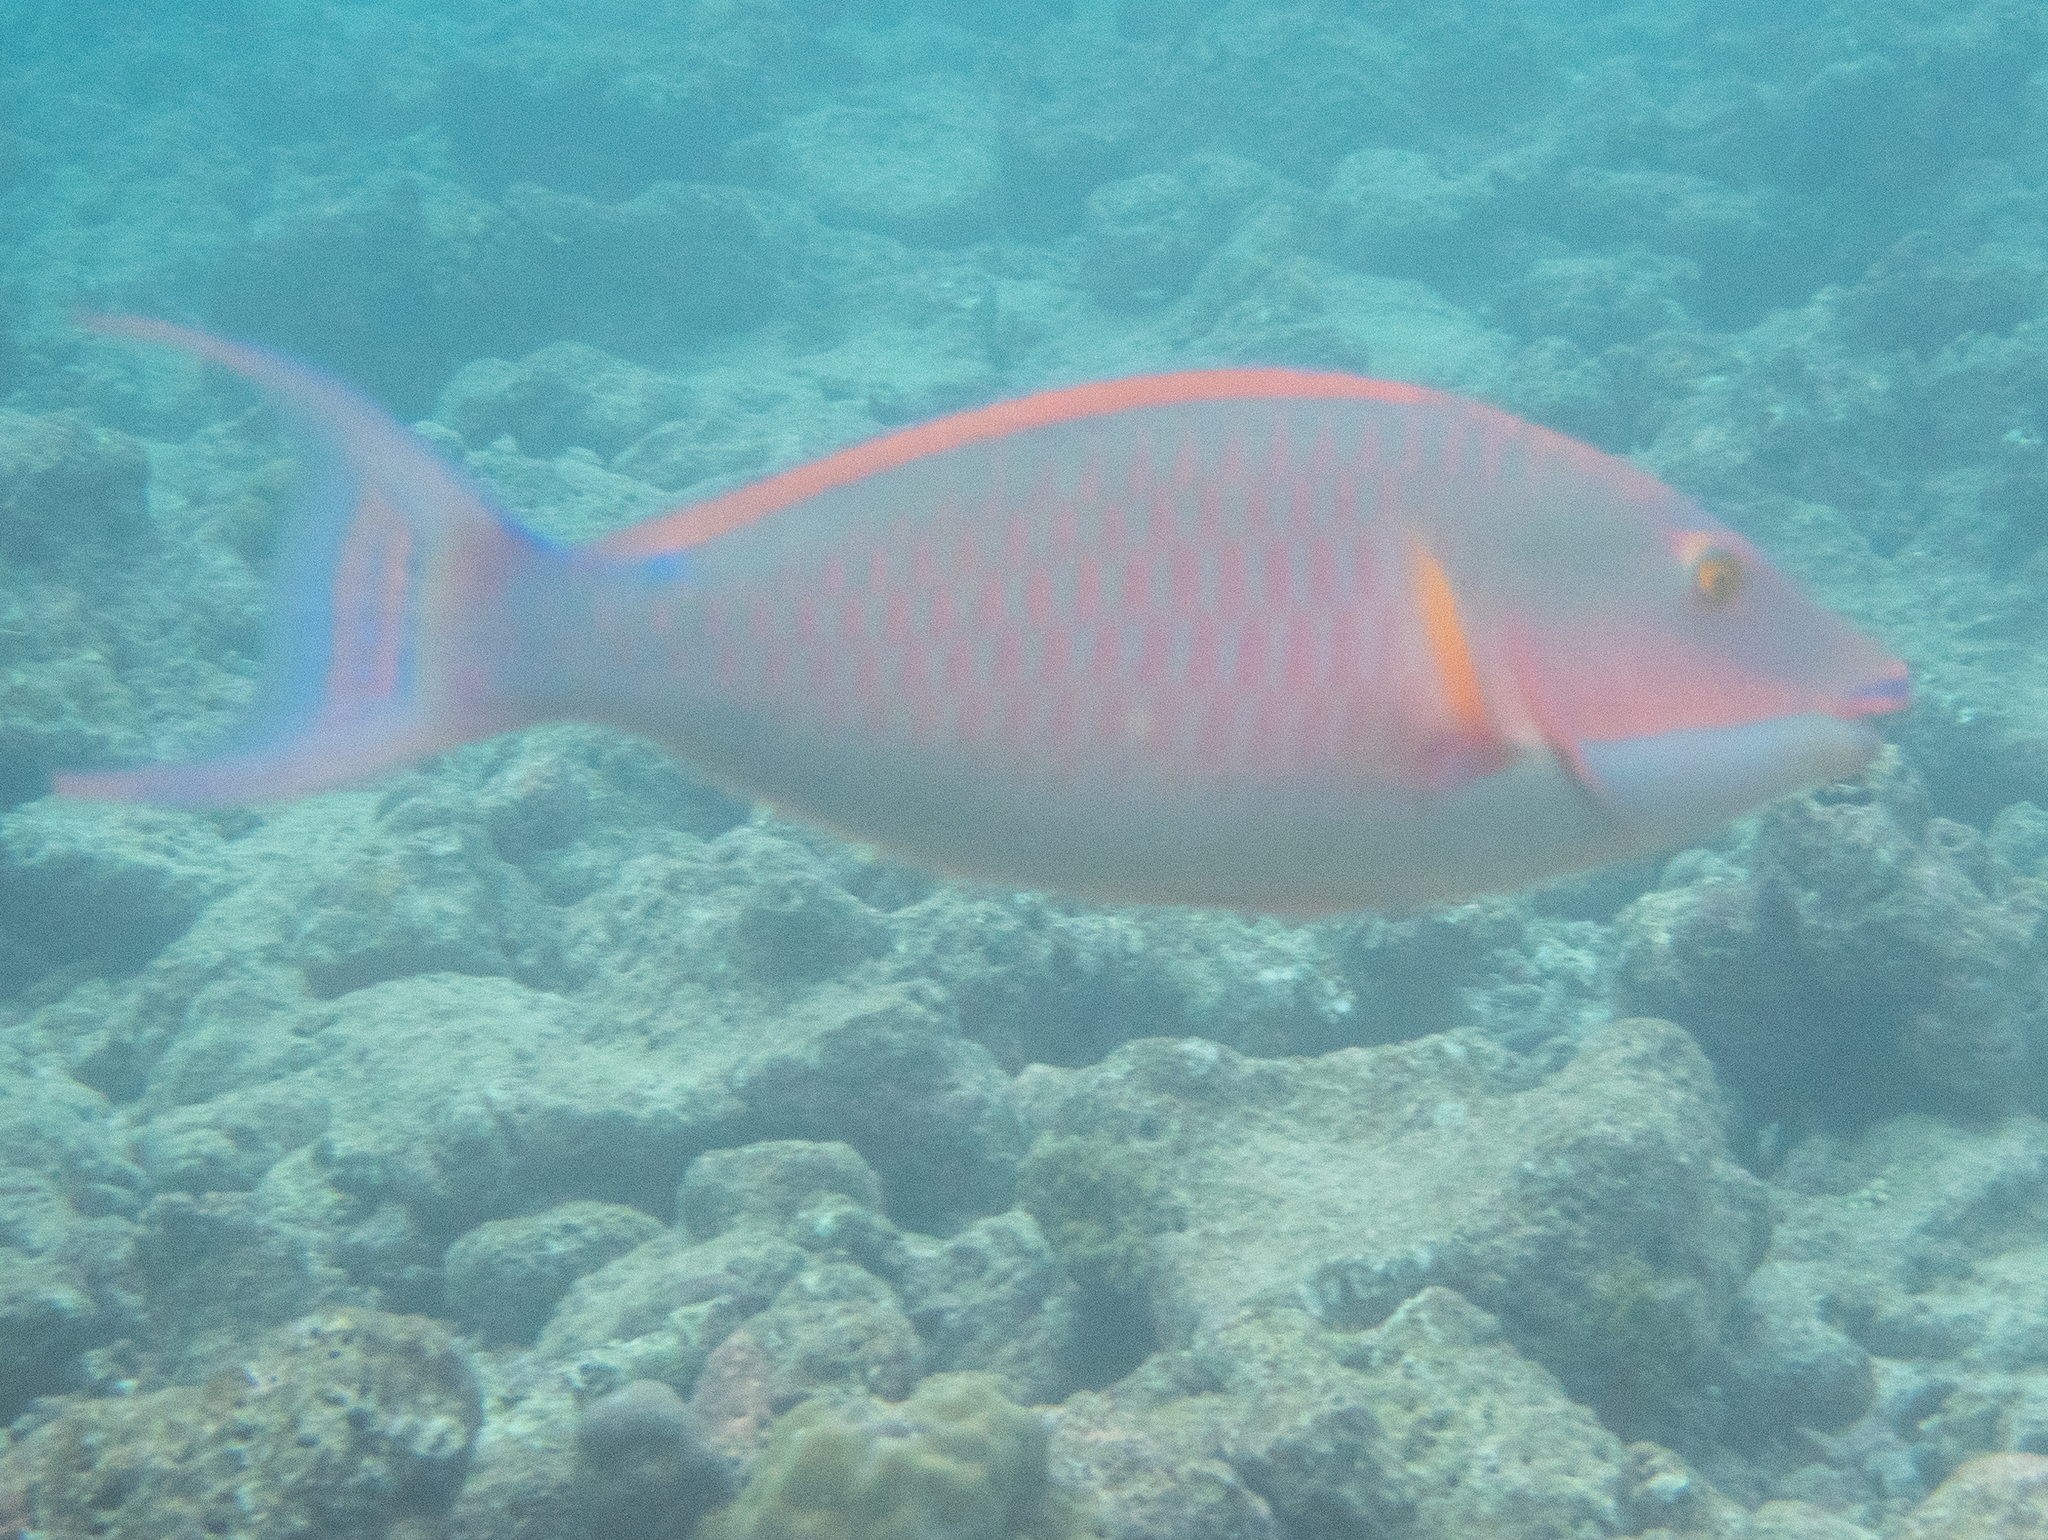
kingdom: Animalia
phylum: Chordata
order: Perciformes
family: Scaridae
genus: Hipposcarus
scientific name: Hipposcarus harid
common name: Candelamoa parrotfish
